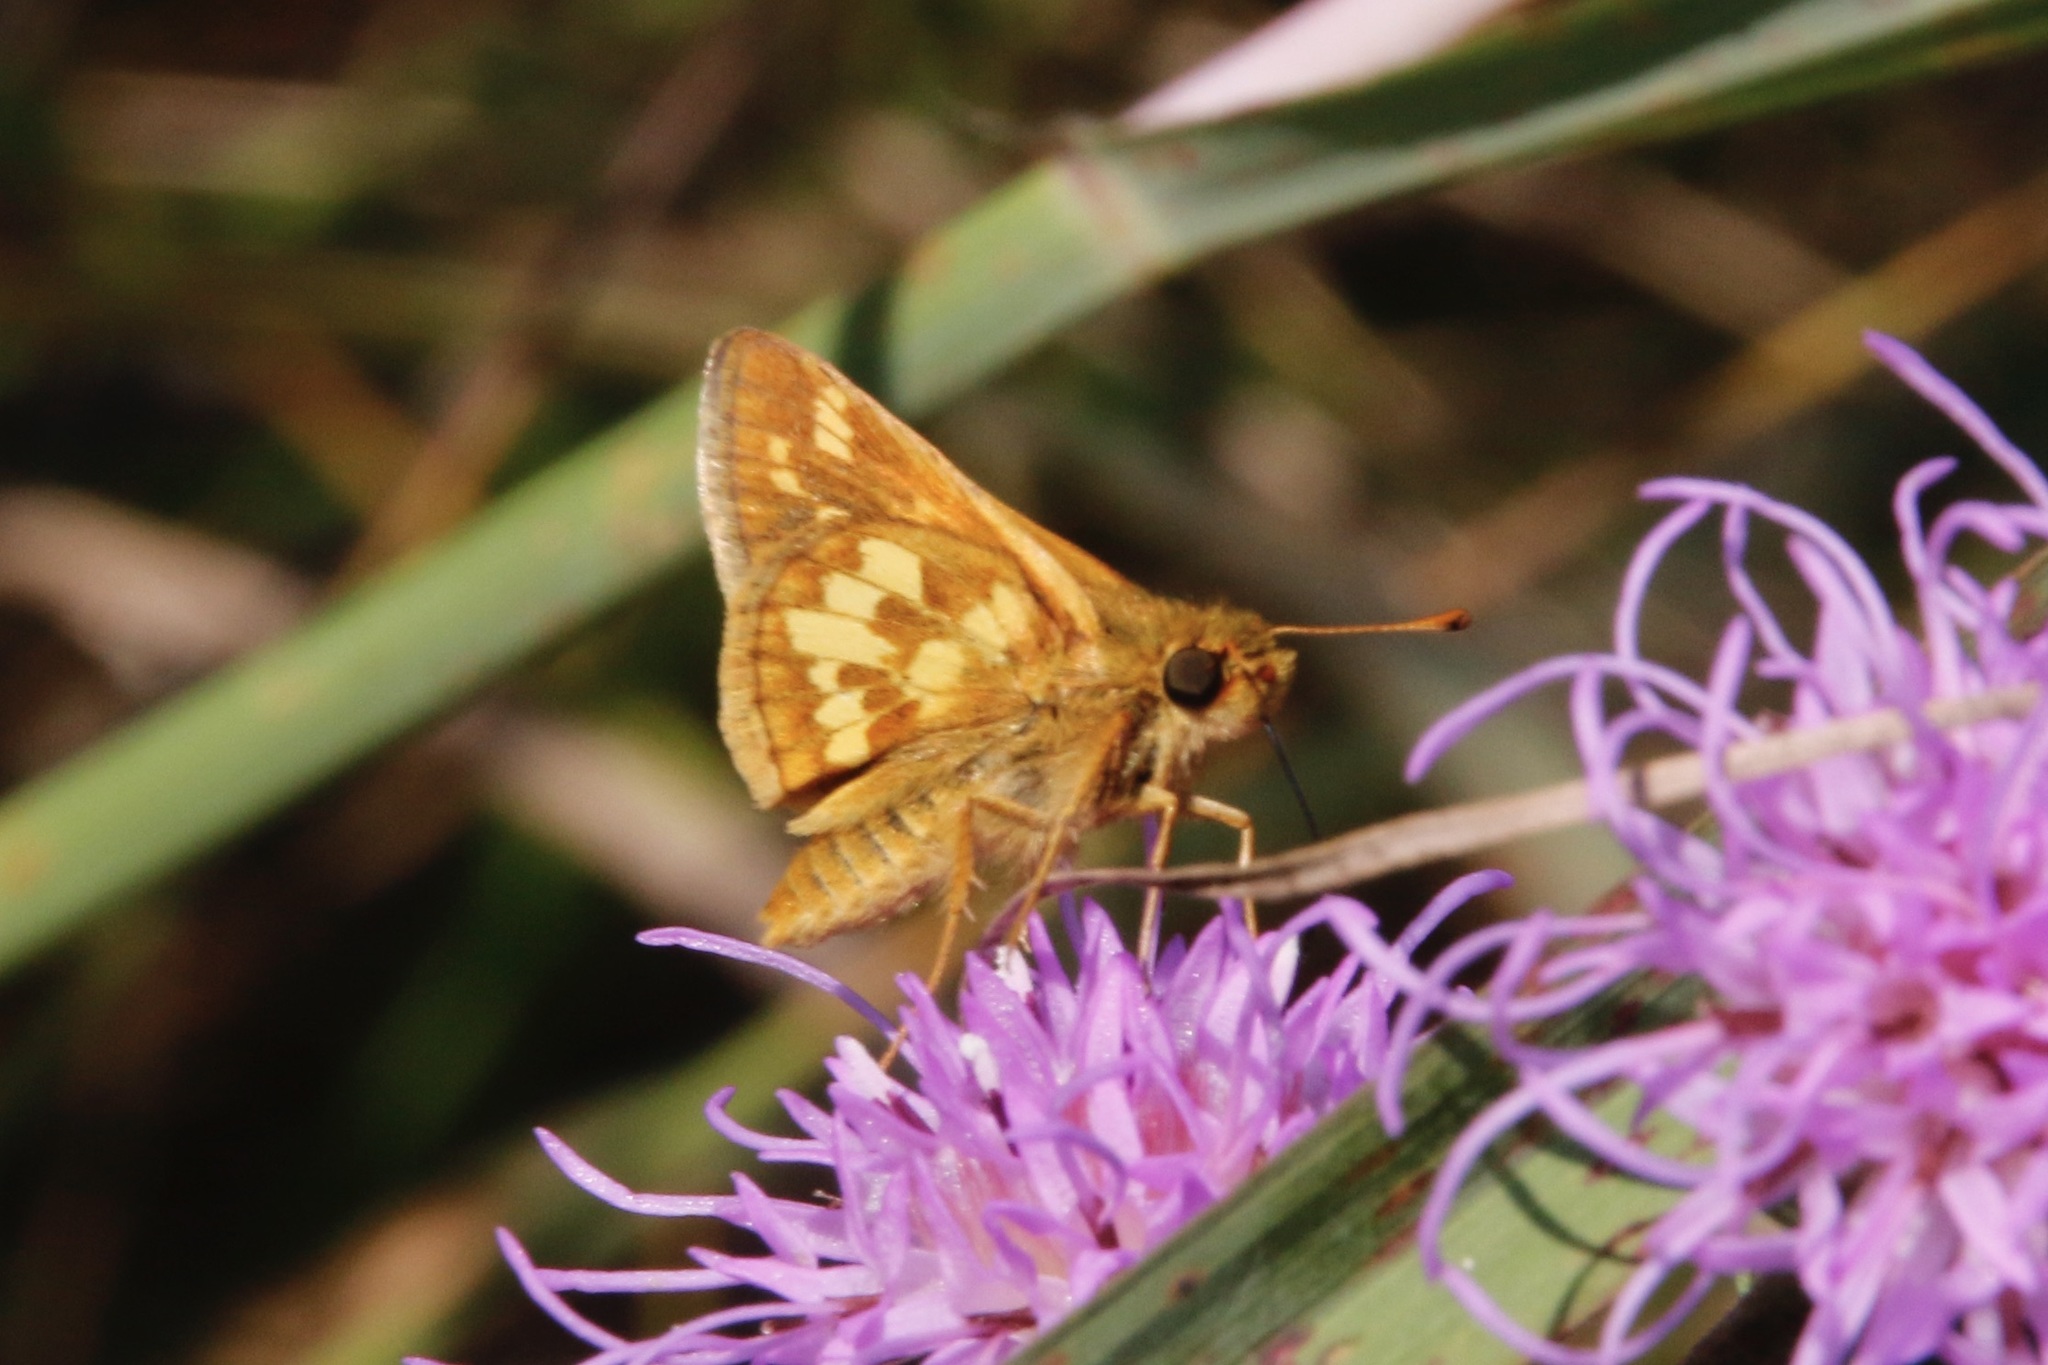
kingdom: Animalia
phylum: Arthropoda
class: Insecta
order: Lepidoptera
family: Hesperiidae
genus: Polites
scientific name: Polites coras
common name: Peck's skipper
